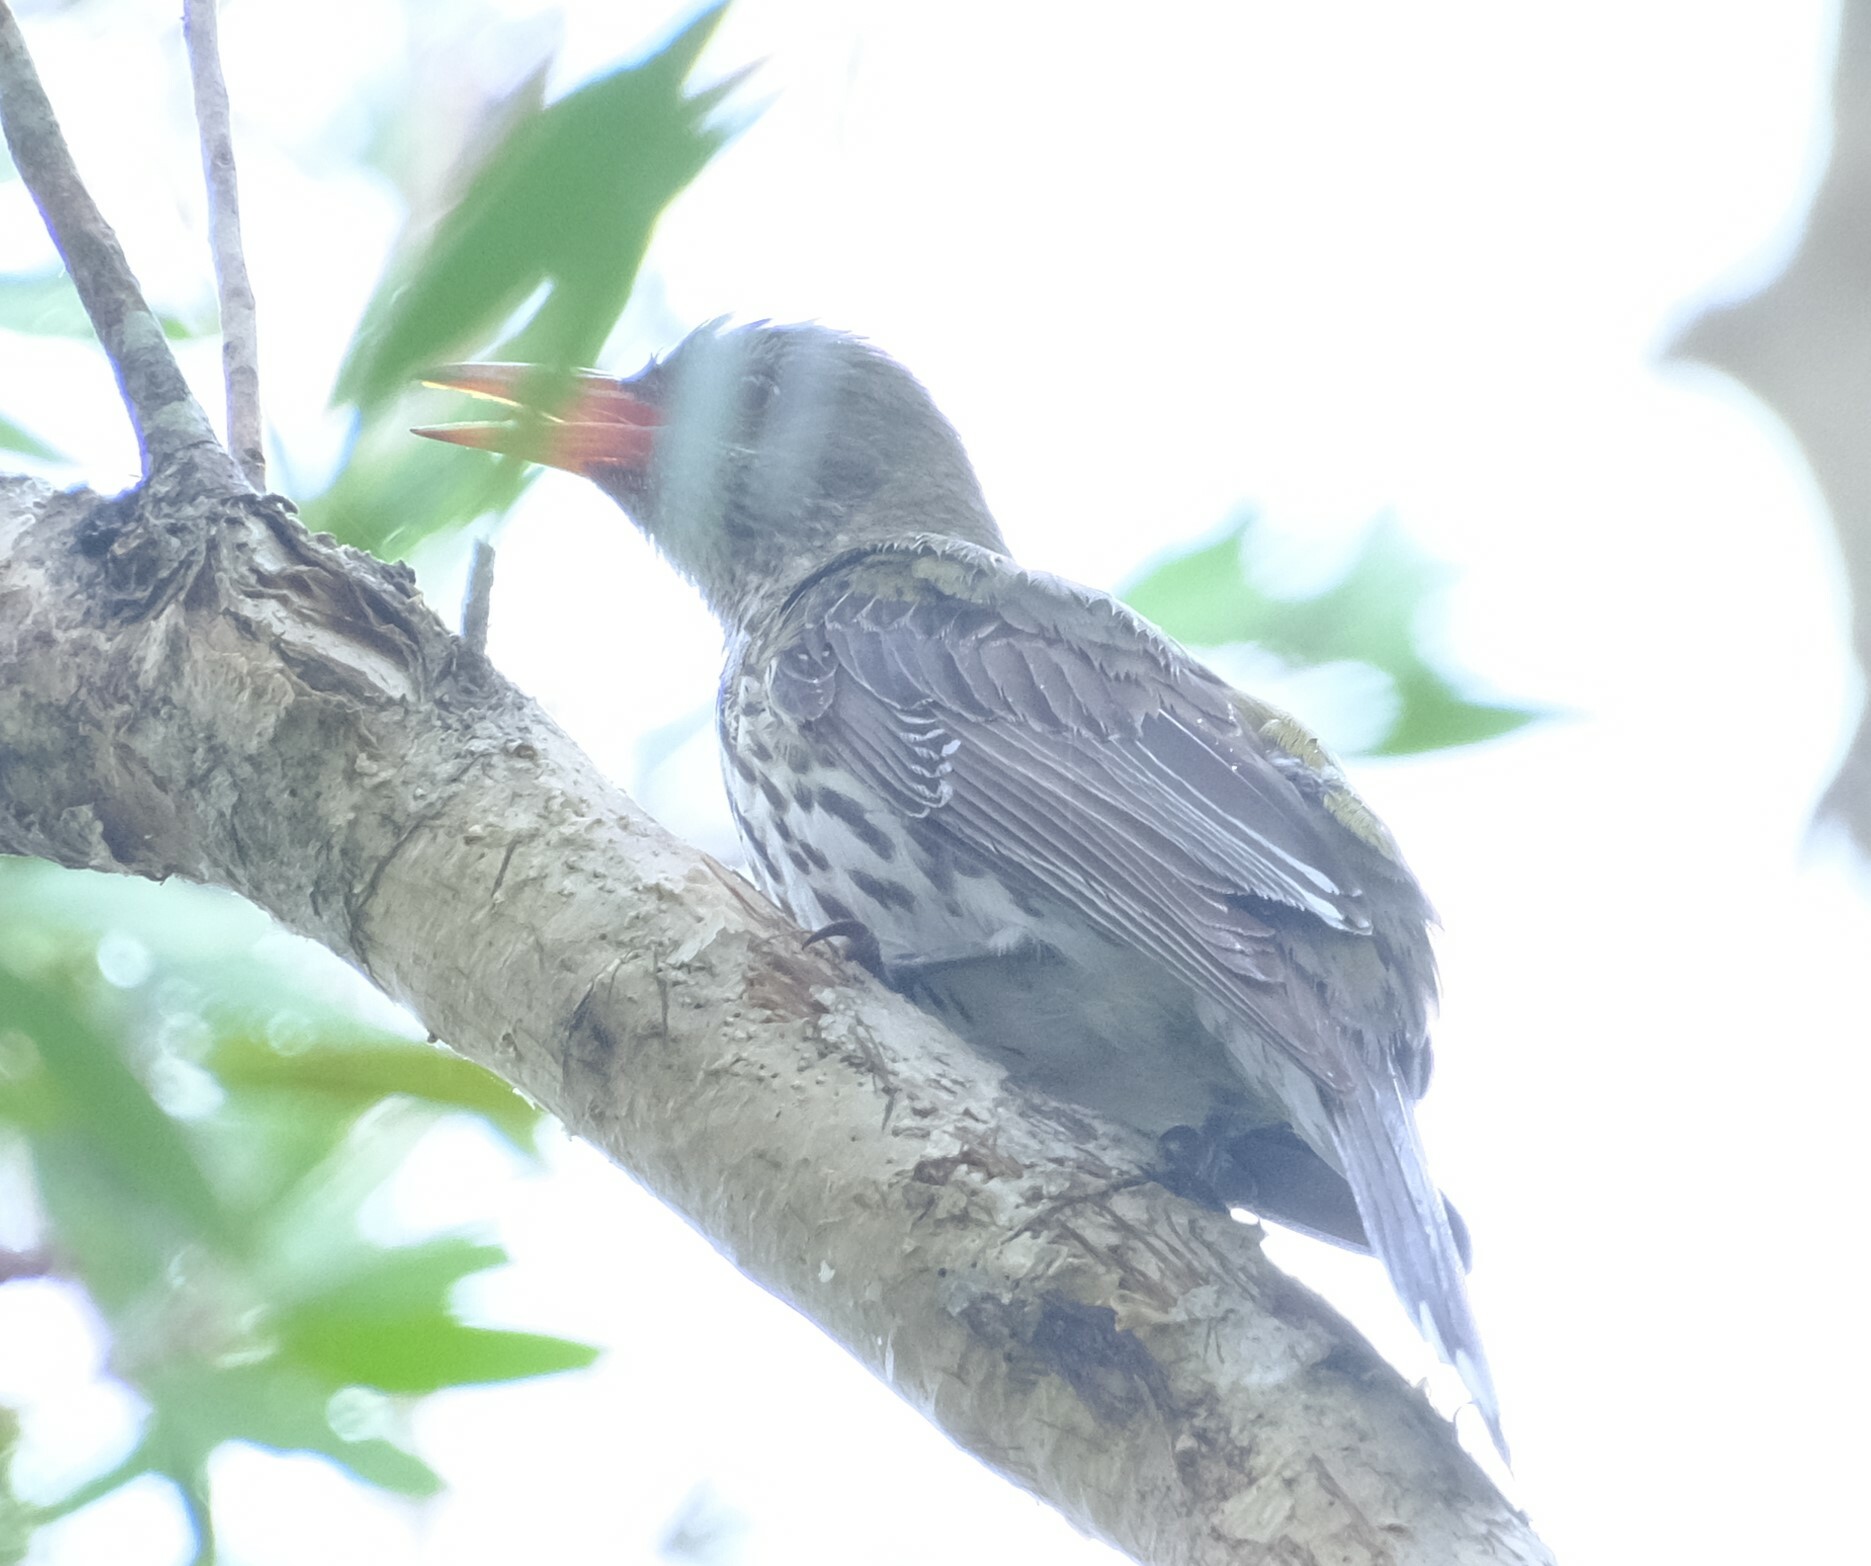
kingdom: Animalia
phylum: Chordata
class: Aves
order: Passeriformes
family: Oriolidae
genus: Oriolus
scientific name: Oriolus sagittatus
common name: Olive-backed oriole
